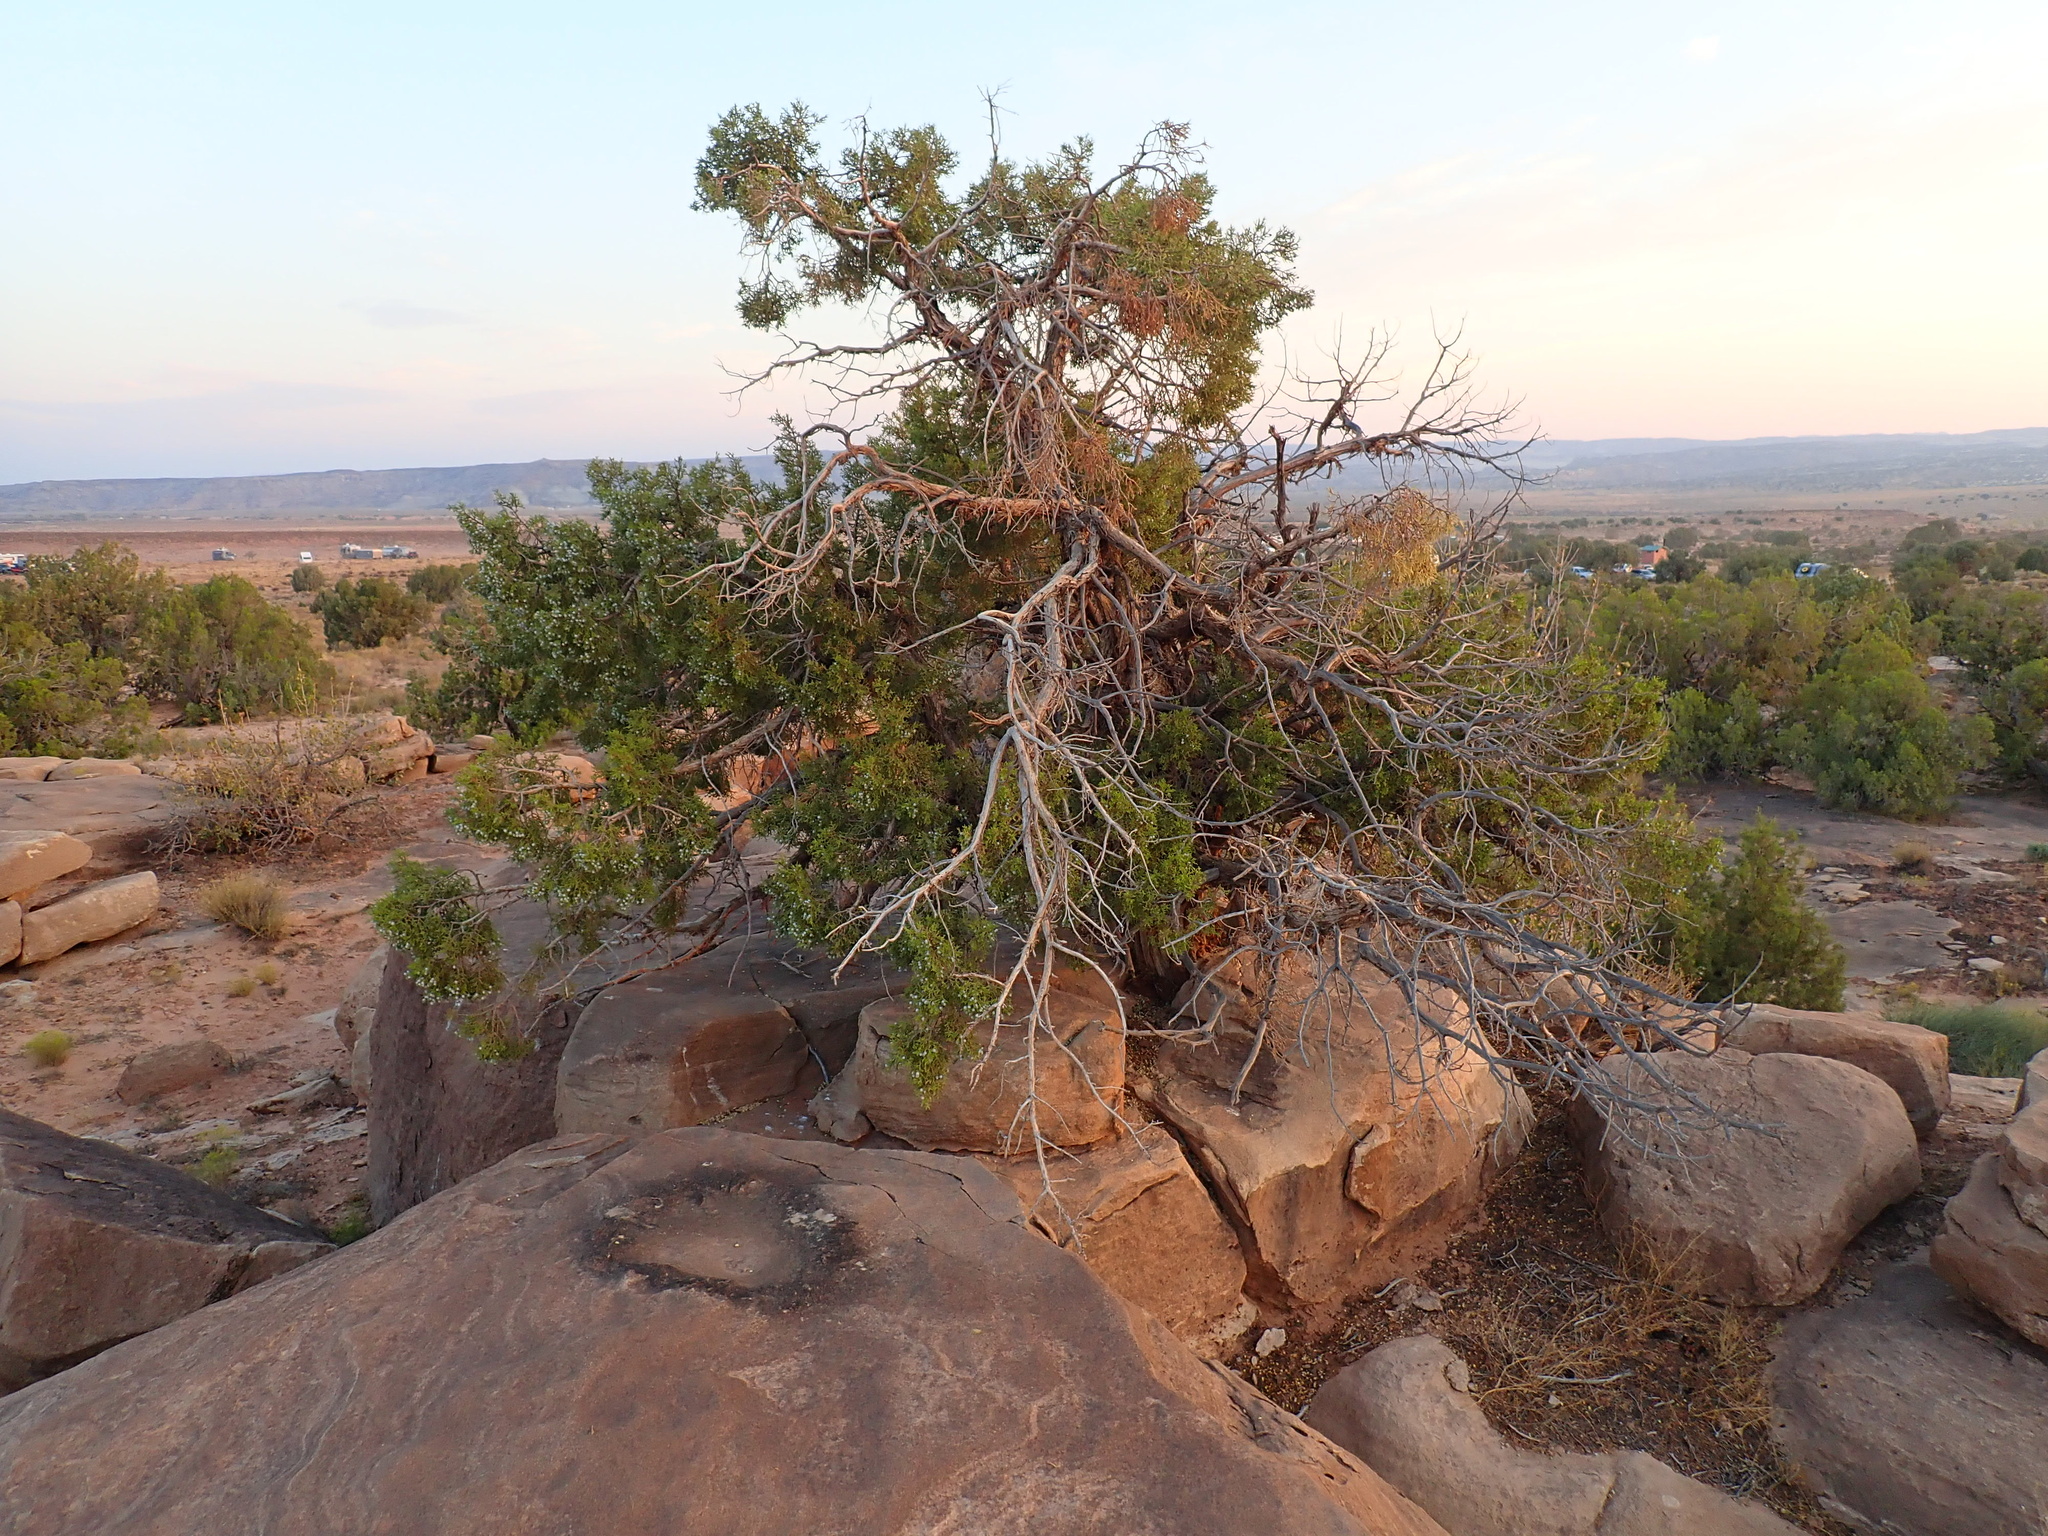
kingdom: Plantae
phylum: Tracheophyta
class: Pinopsida
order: Pinales
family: Cupressaceae
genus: Juniperus
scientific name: Juniperus osteosperma
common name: Utah juniper
